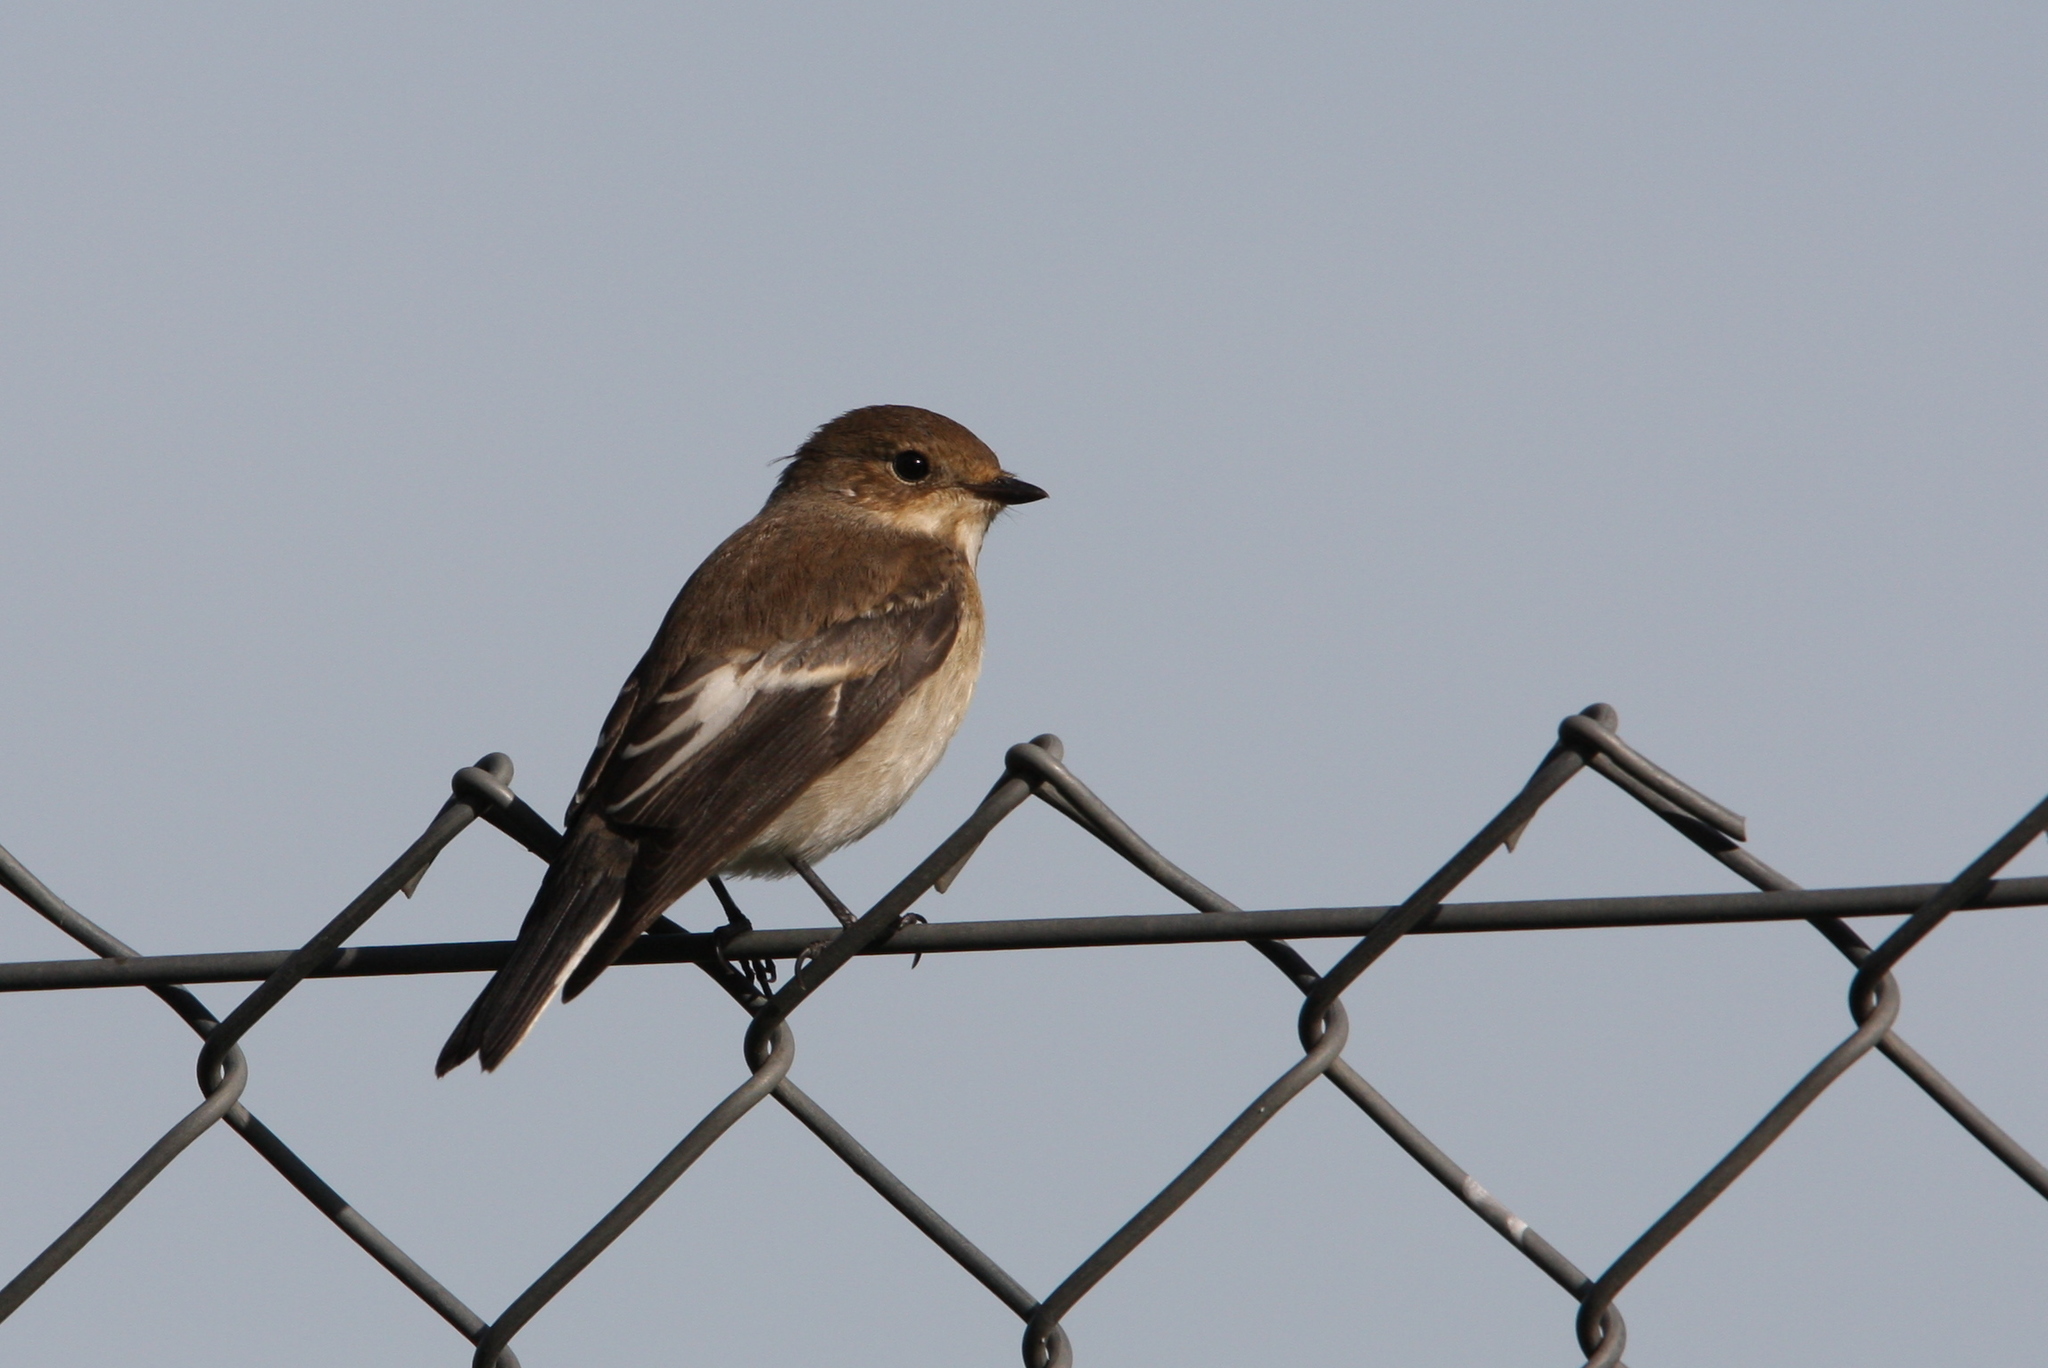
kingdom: Animalia
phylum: Chordata
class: Aves
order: Passeriformes
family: Muscicapidae
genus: Ficedula
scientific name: Ficedula hypoleuca
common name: European pied flycatcher
